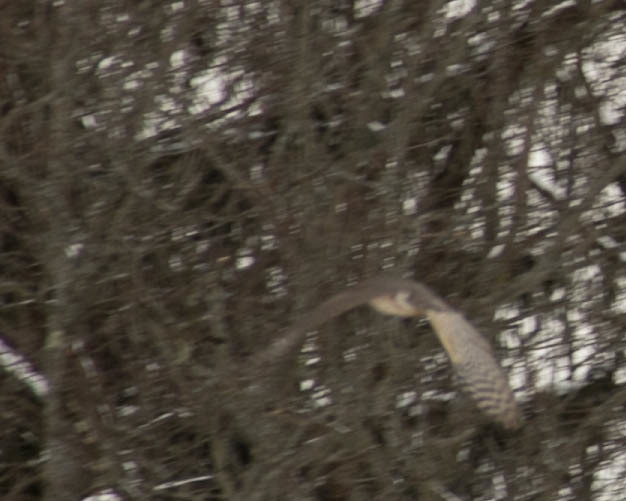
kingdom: Animalia
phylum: Chordata
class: Aves
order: Accipitriformes
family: Accipitridae
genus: Accipiter
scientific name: Accipiter cooperii
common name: Cooper's hawk
